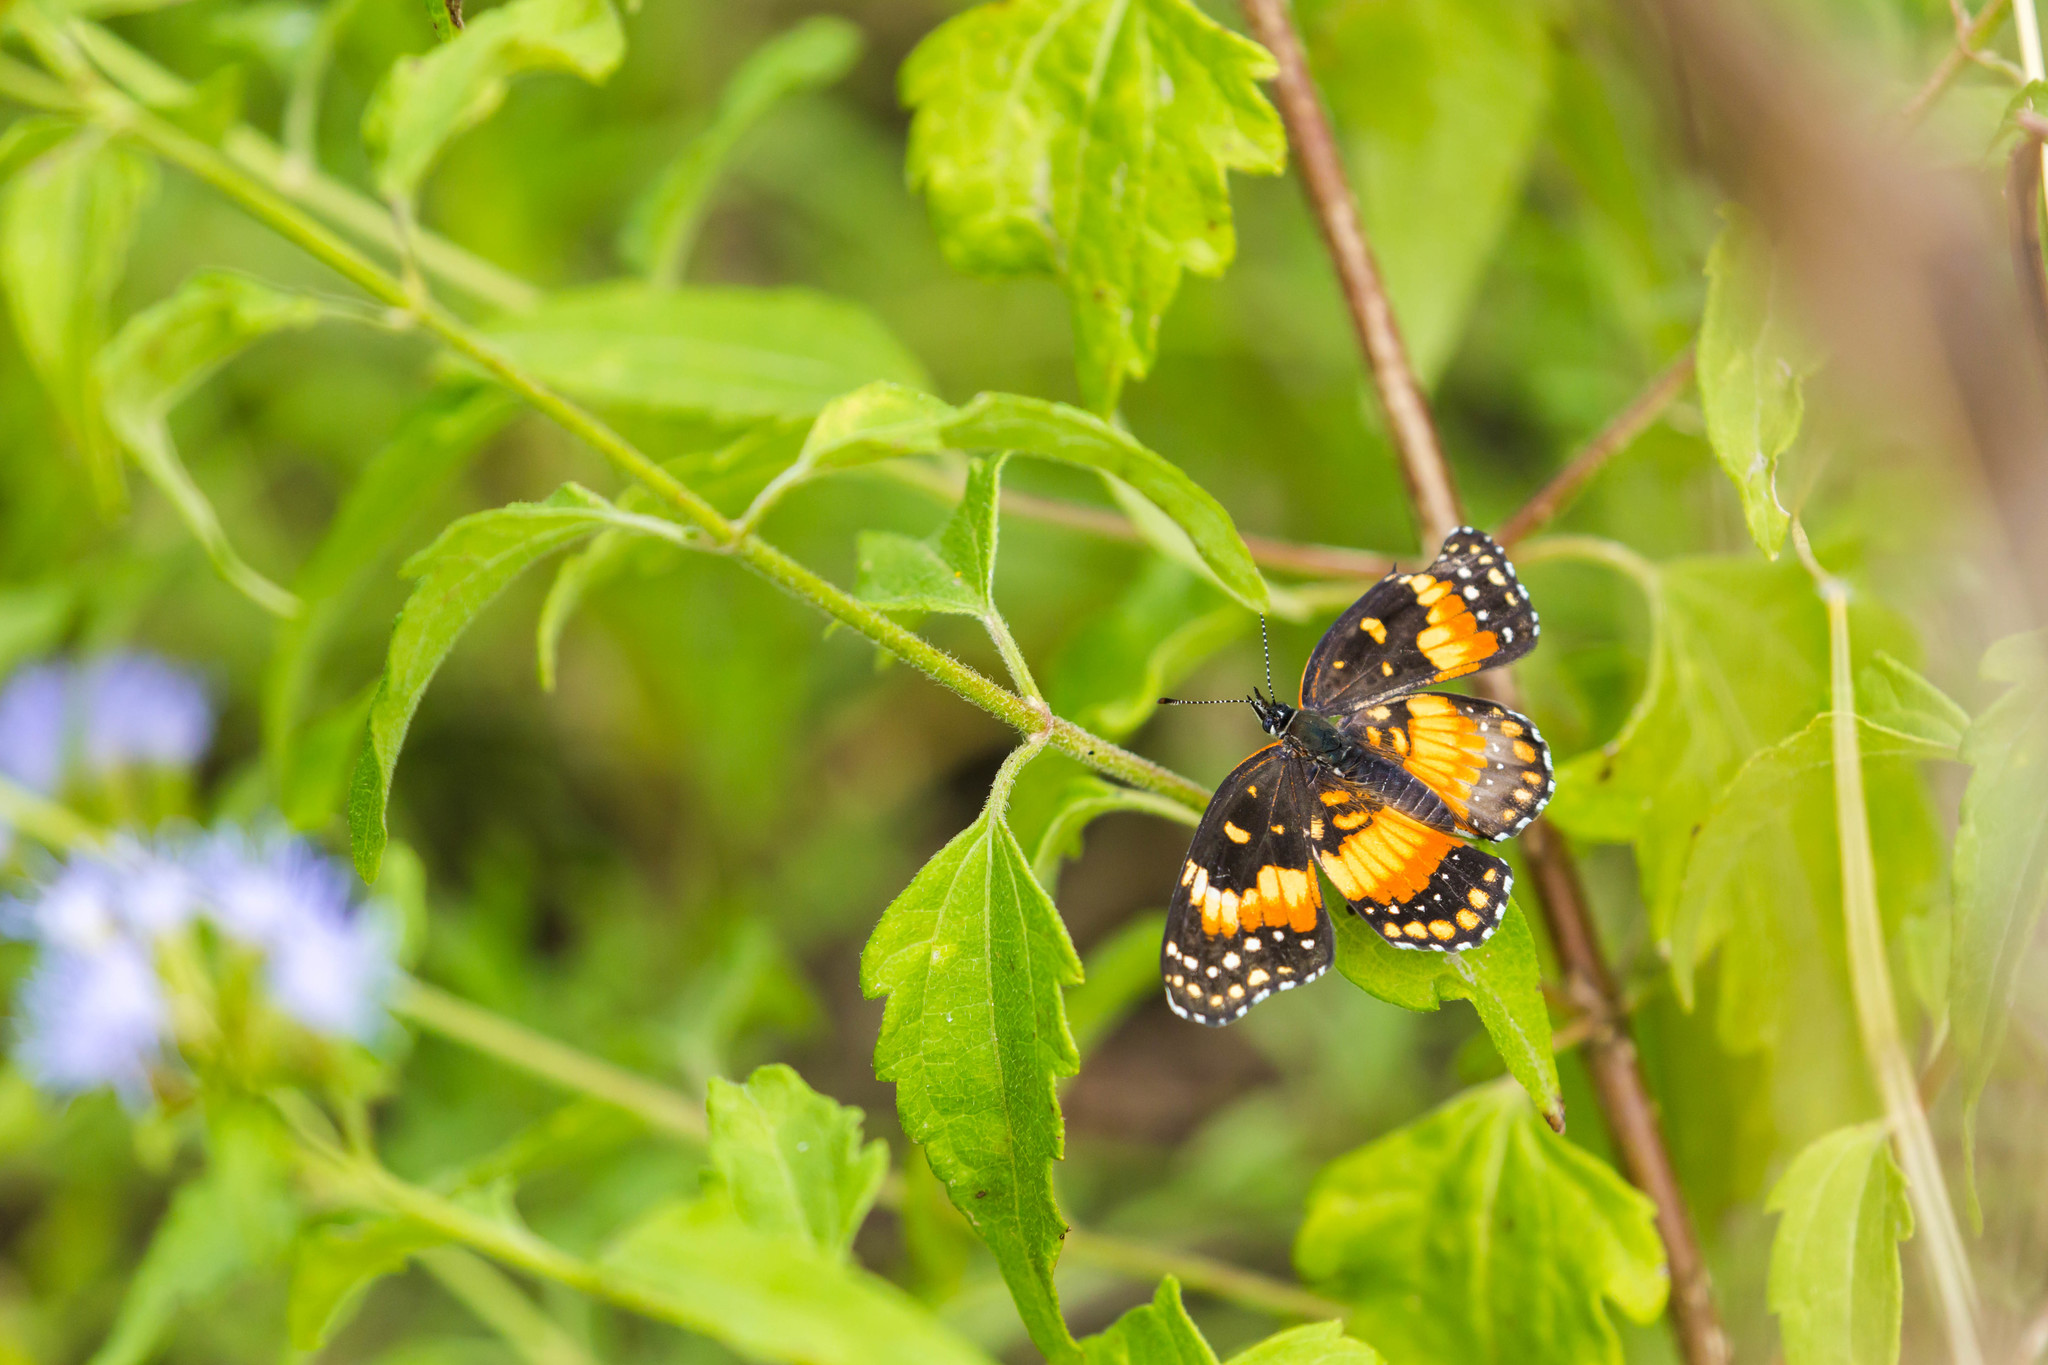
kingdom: Animalia
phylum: Arthropoda
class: Insecta
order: Lepidoptera
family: Nymphalidae
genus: Chlosyne
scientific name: Chlosyne lacinia
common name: Bordered patch
